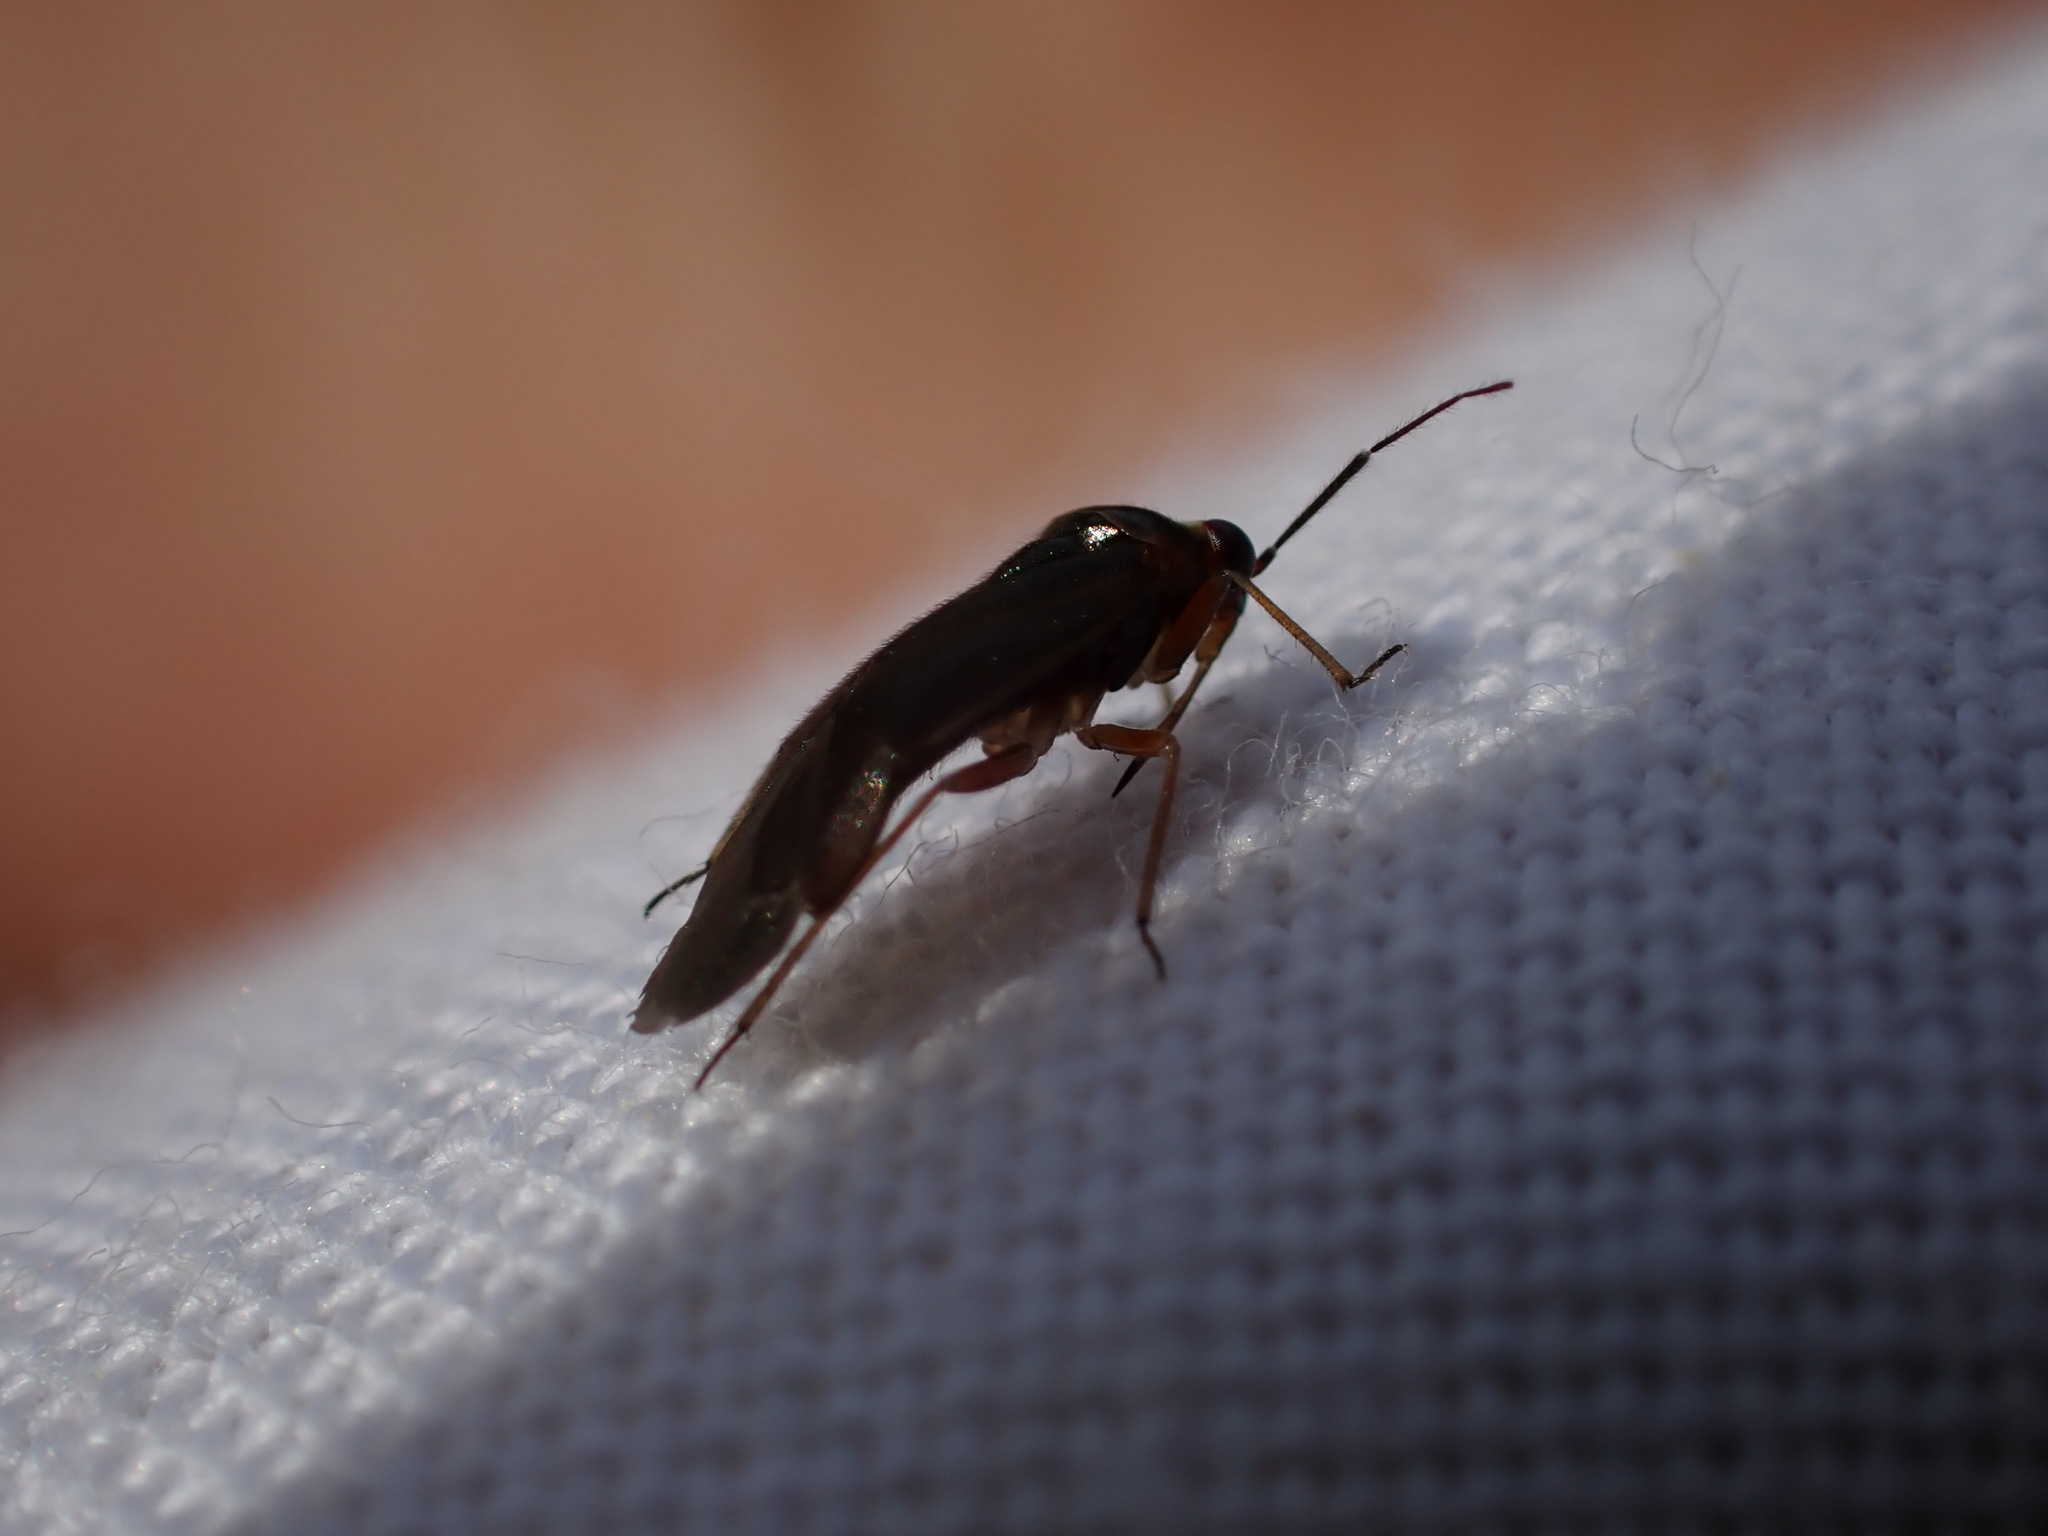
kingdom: Animalia
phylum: Arthropoda
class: Insecta
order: Hemiptera
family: Miridae
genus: Strongylocoris
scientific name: Strongylocoris cicadifrons
